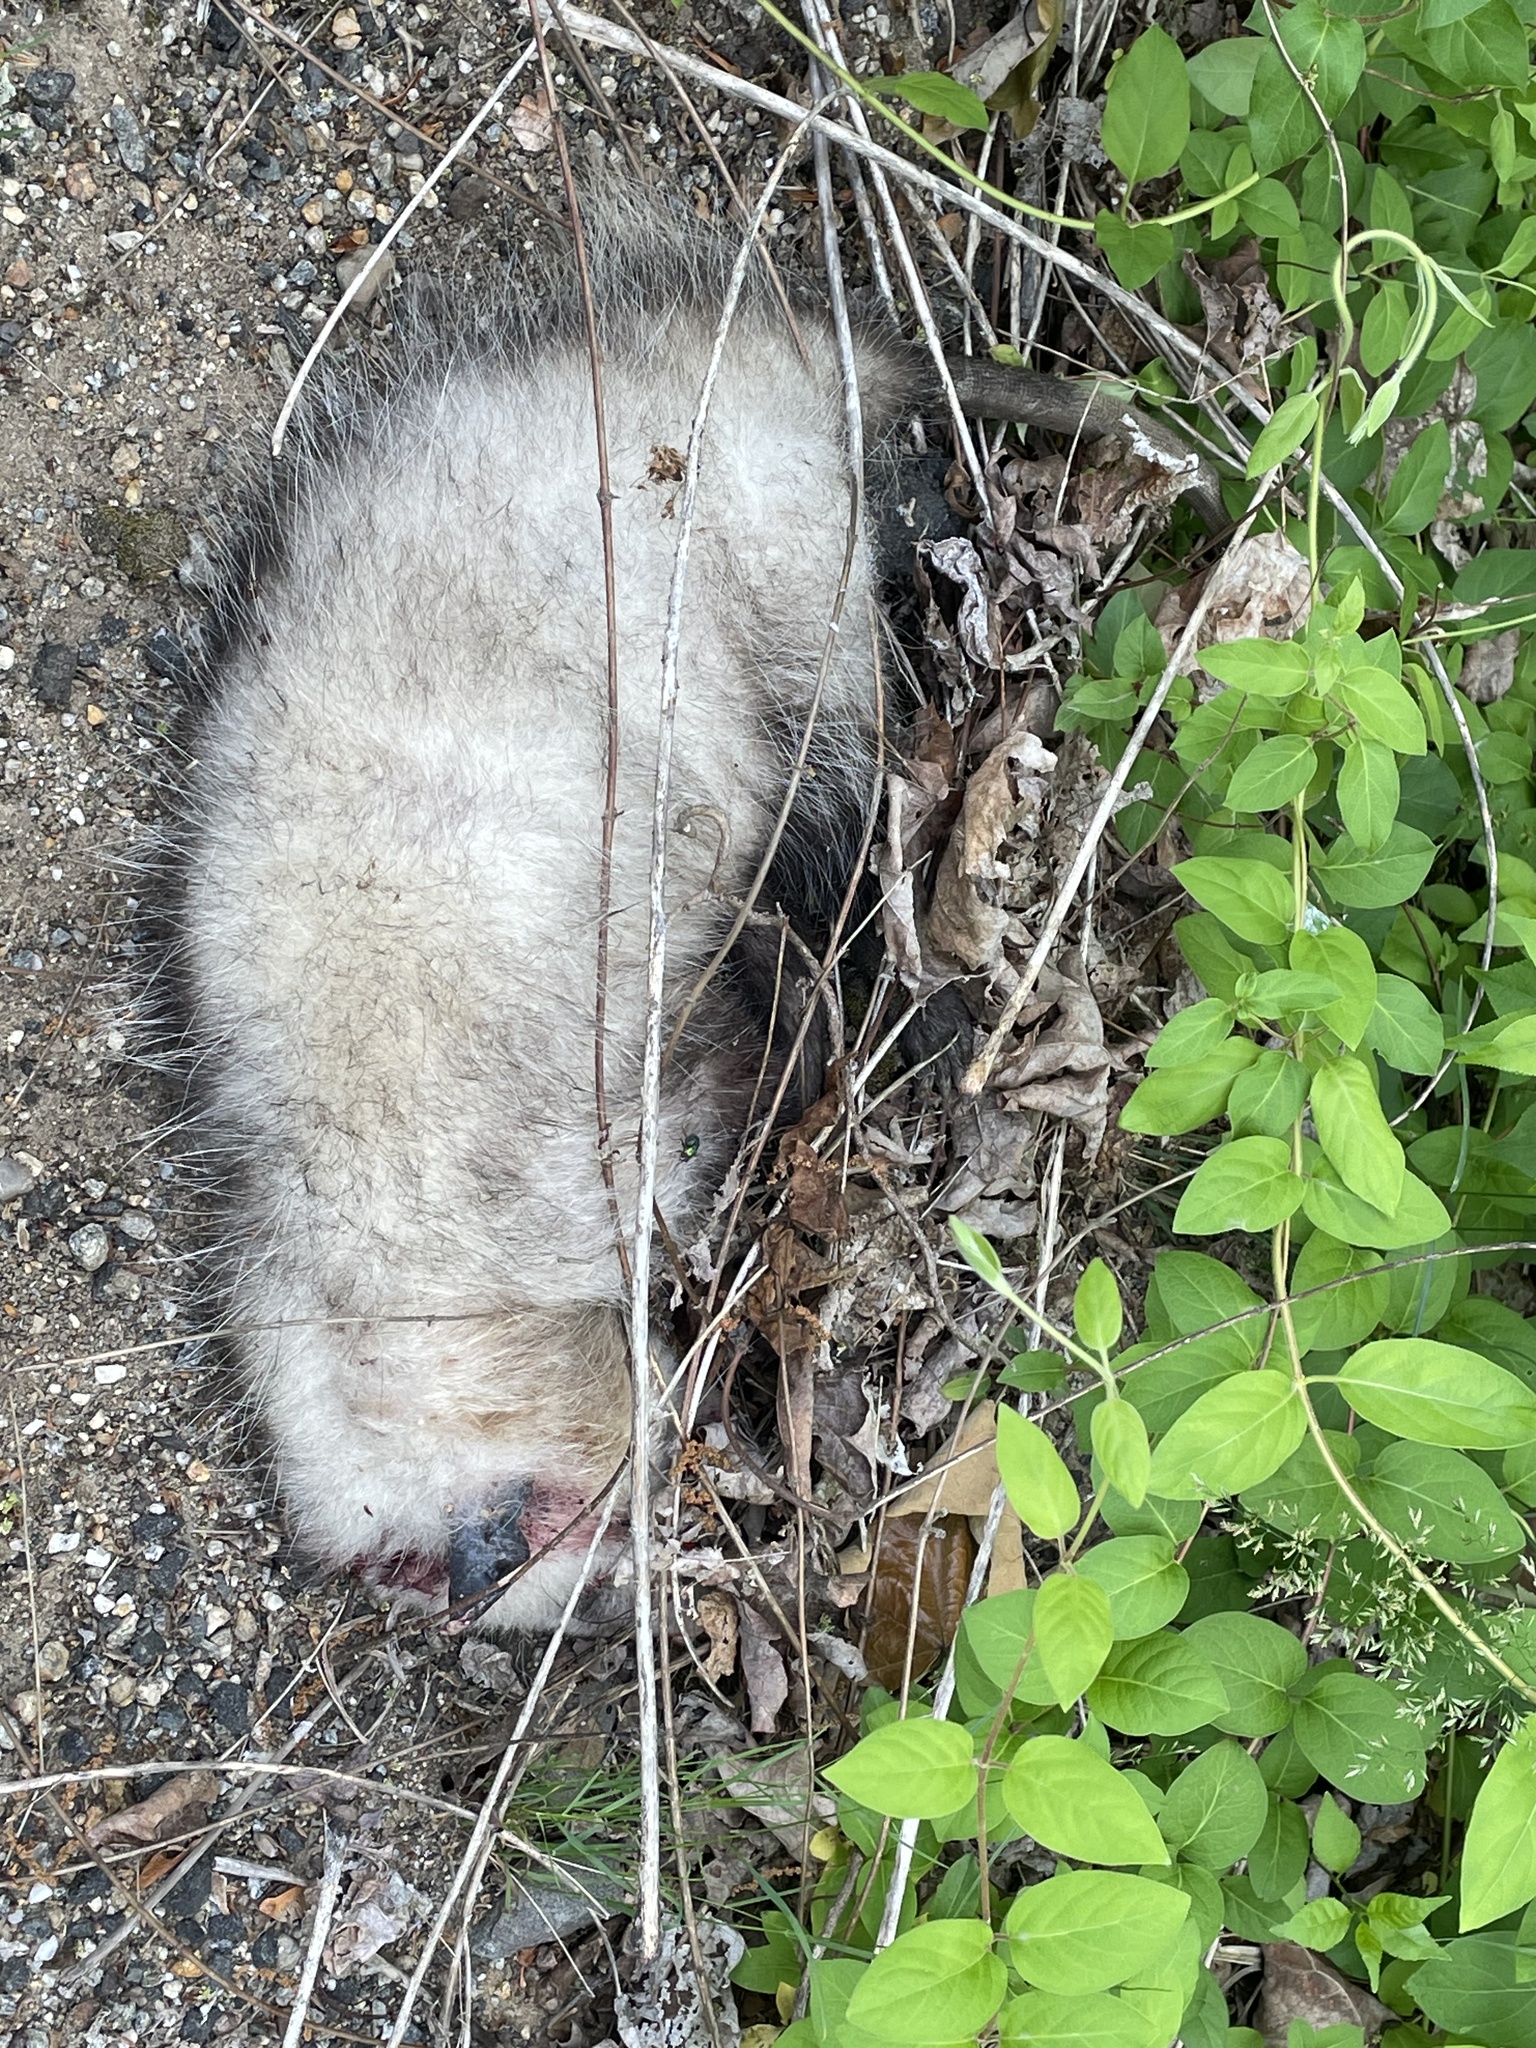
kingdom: Animalia
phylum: Chordata
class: Mammalia
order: Didelphimorphia
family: Didelphidae
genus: Didelphis
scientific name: Didelphis virginiana
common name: Virginia opossum
